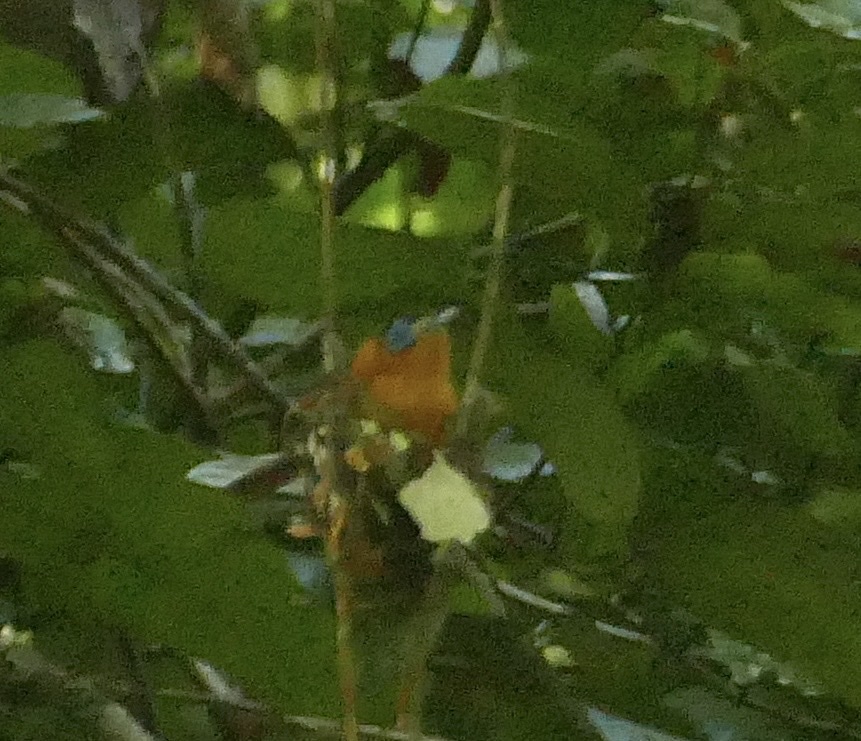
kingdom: Animalia
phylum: Chordata
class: Aves
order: Passeriformes
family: Monarchidae
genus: Arses
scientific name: Arses telescopthalmus
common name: Frilled monarch
